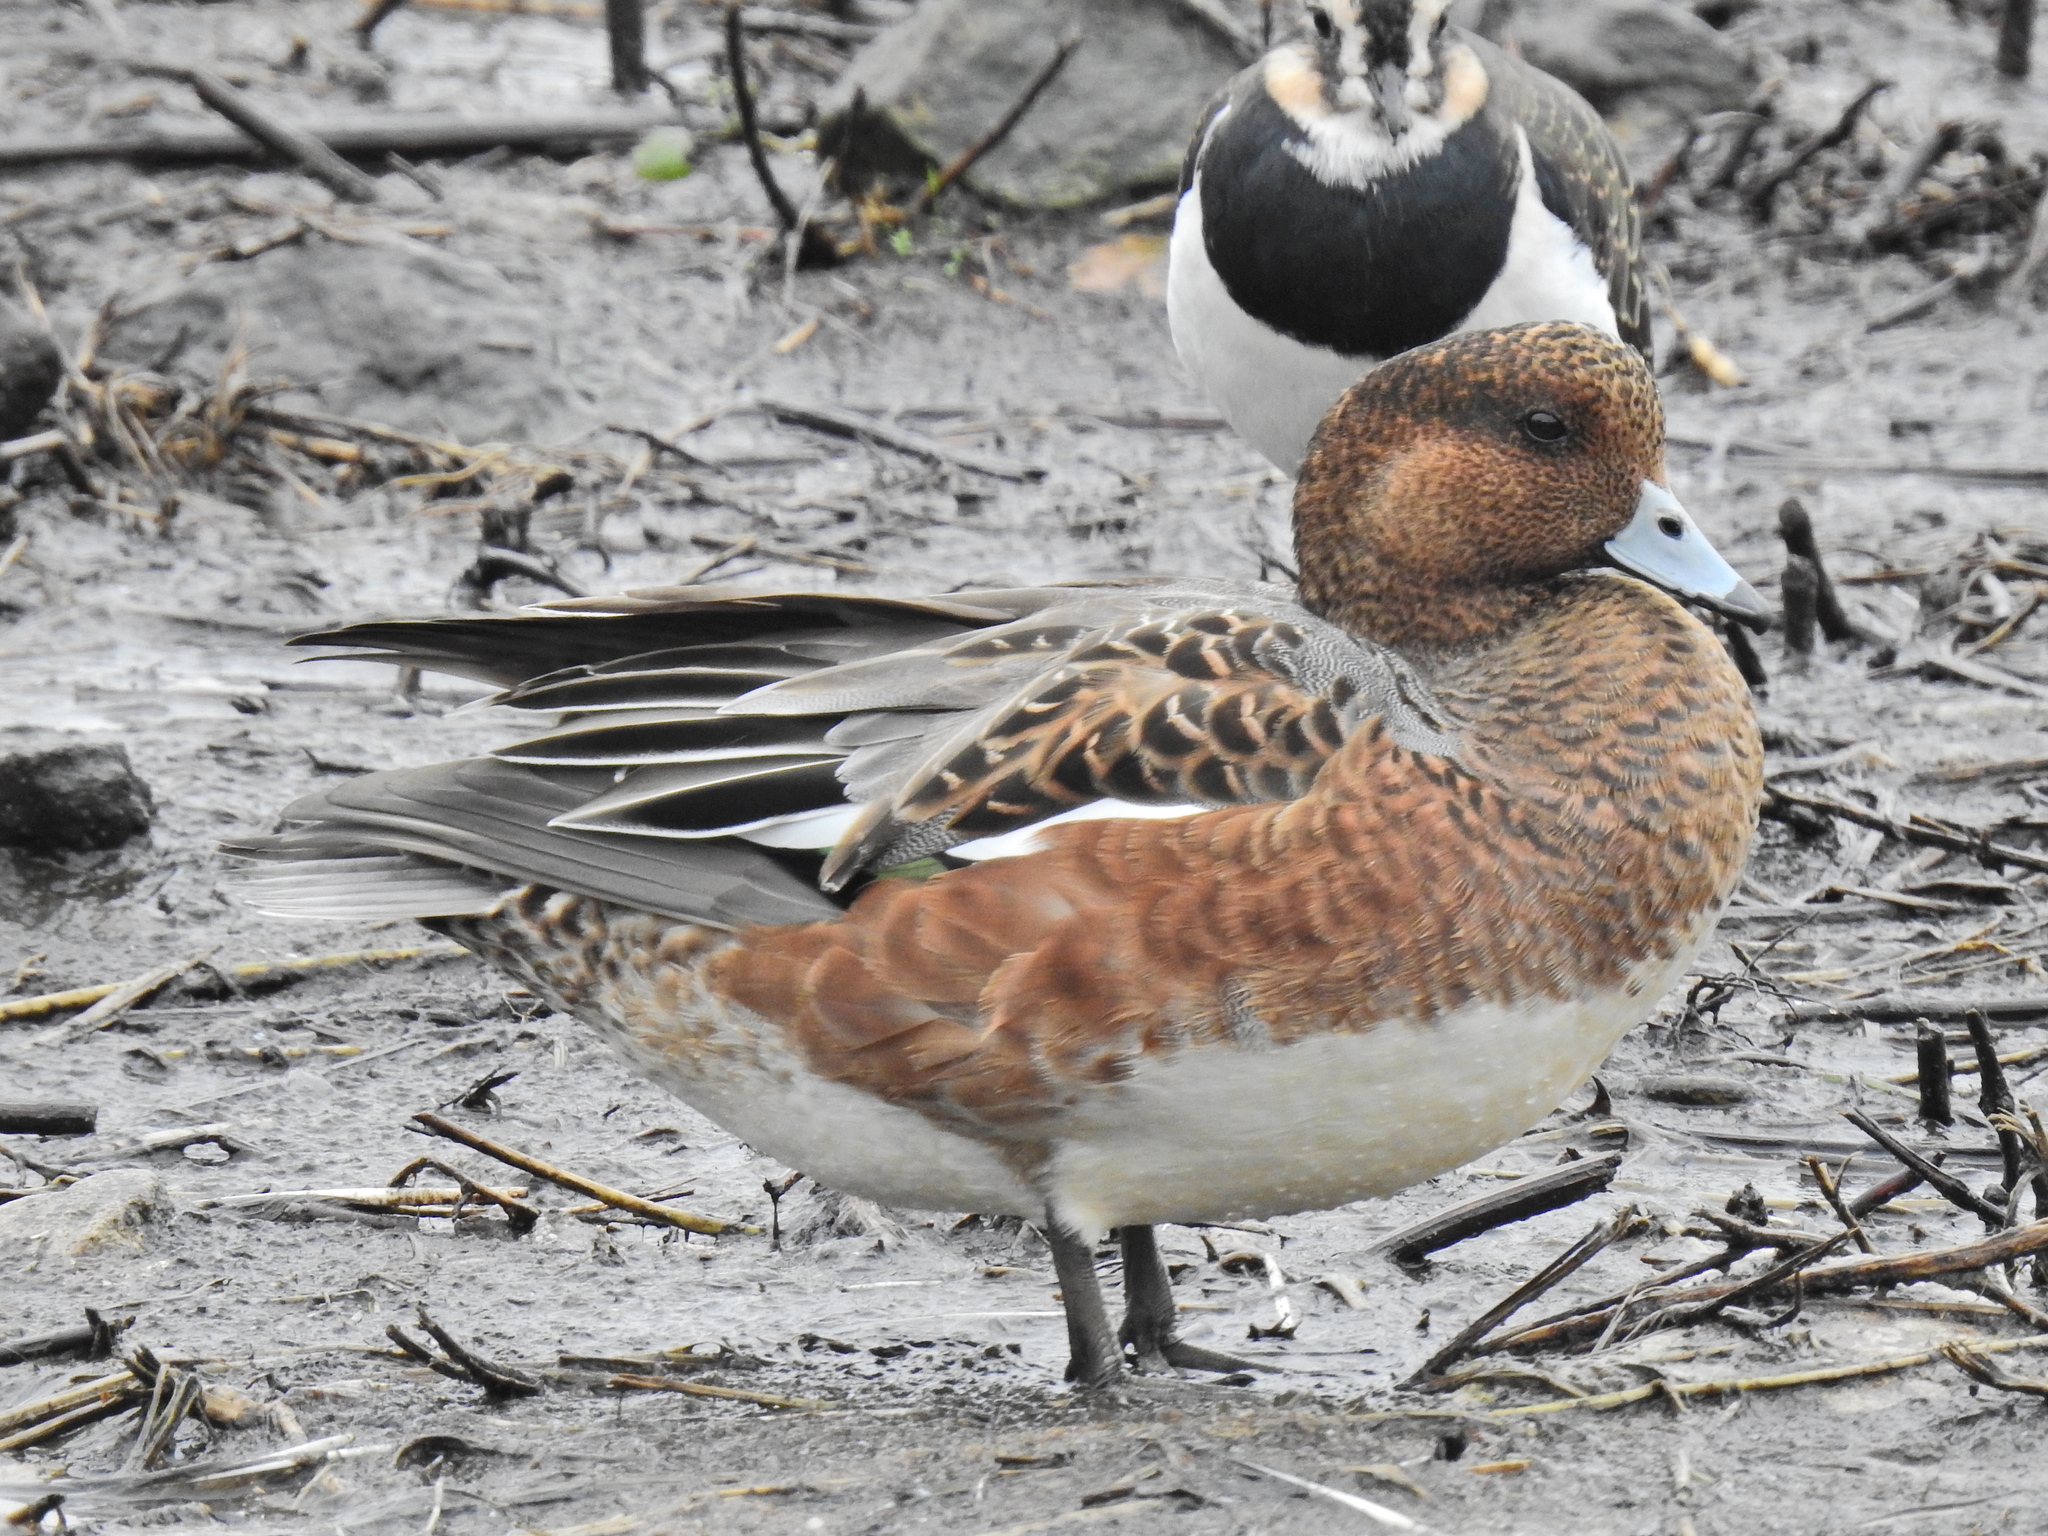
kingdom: Animalia
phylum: Chordata
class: Aves
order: Anseriformes
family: Anatidae
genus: Mareca
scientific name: Mareca penelope
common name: Eurasian wigeon
